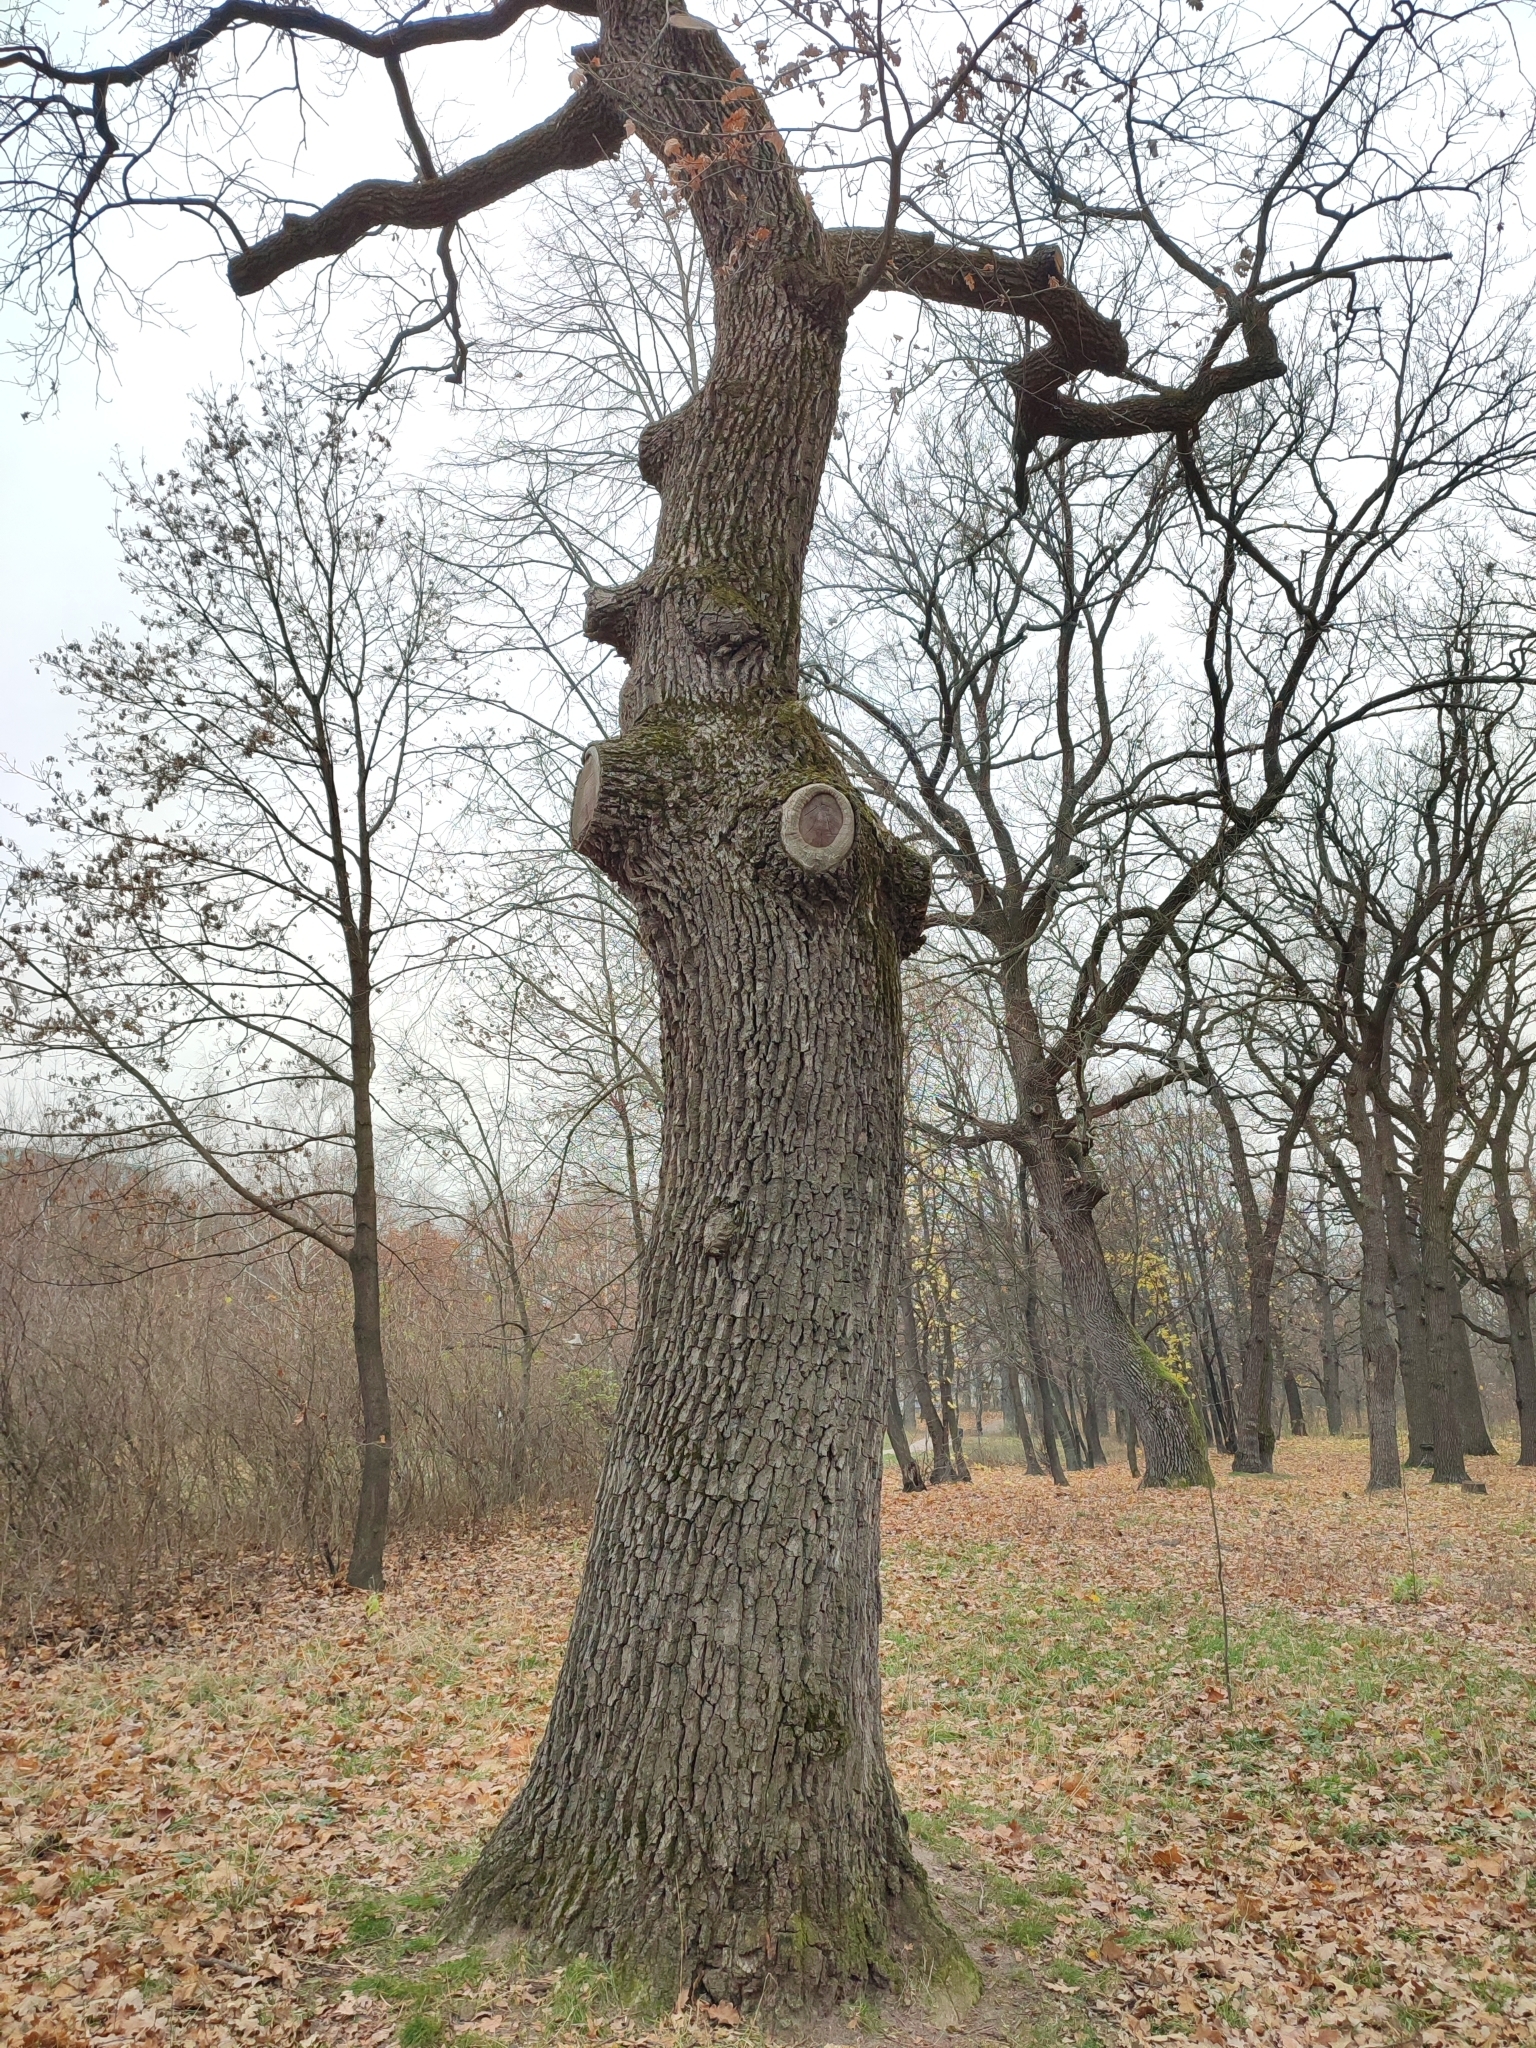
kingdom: Plantae
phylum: Tracheophyta
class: Magnoliopsida
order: Fagales
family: Fagaceae
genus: Quercus
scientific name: Quercus robur
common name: Pedunculate oak
